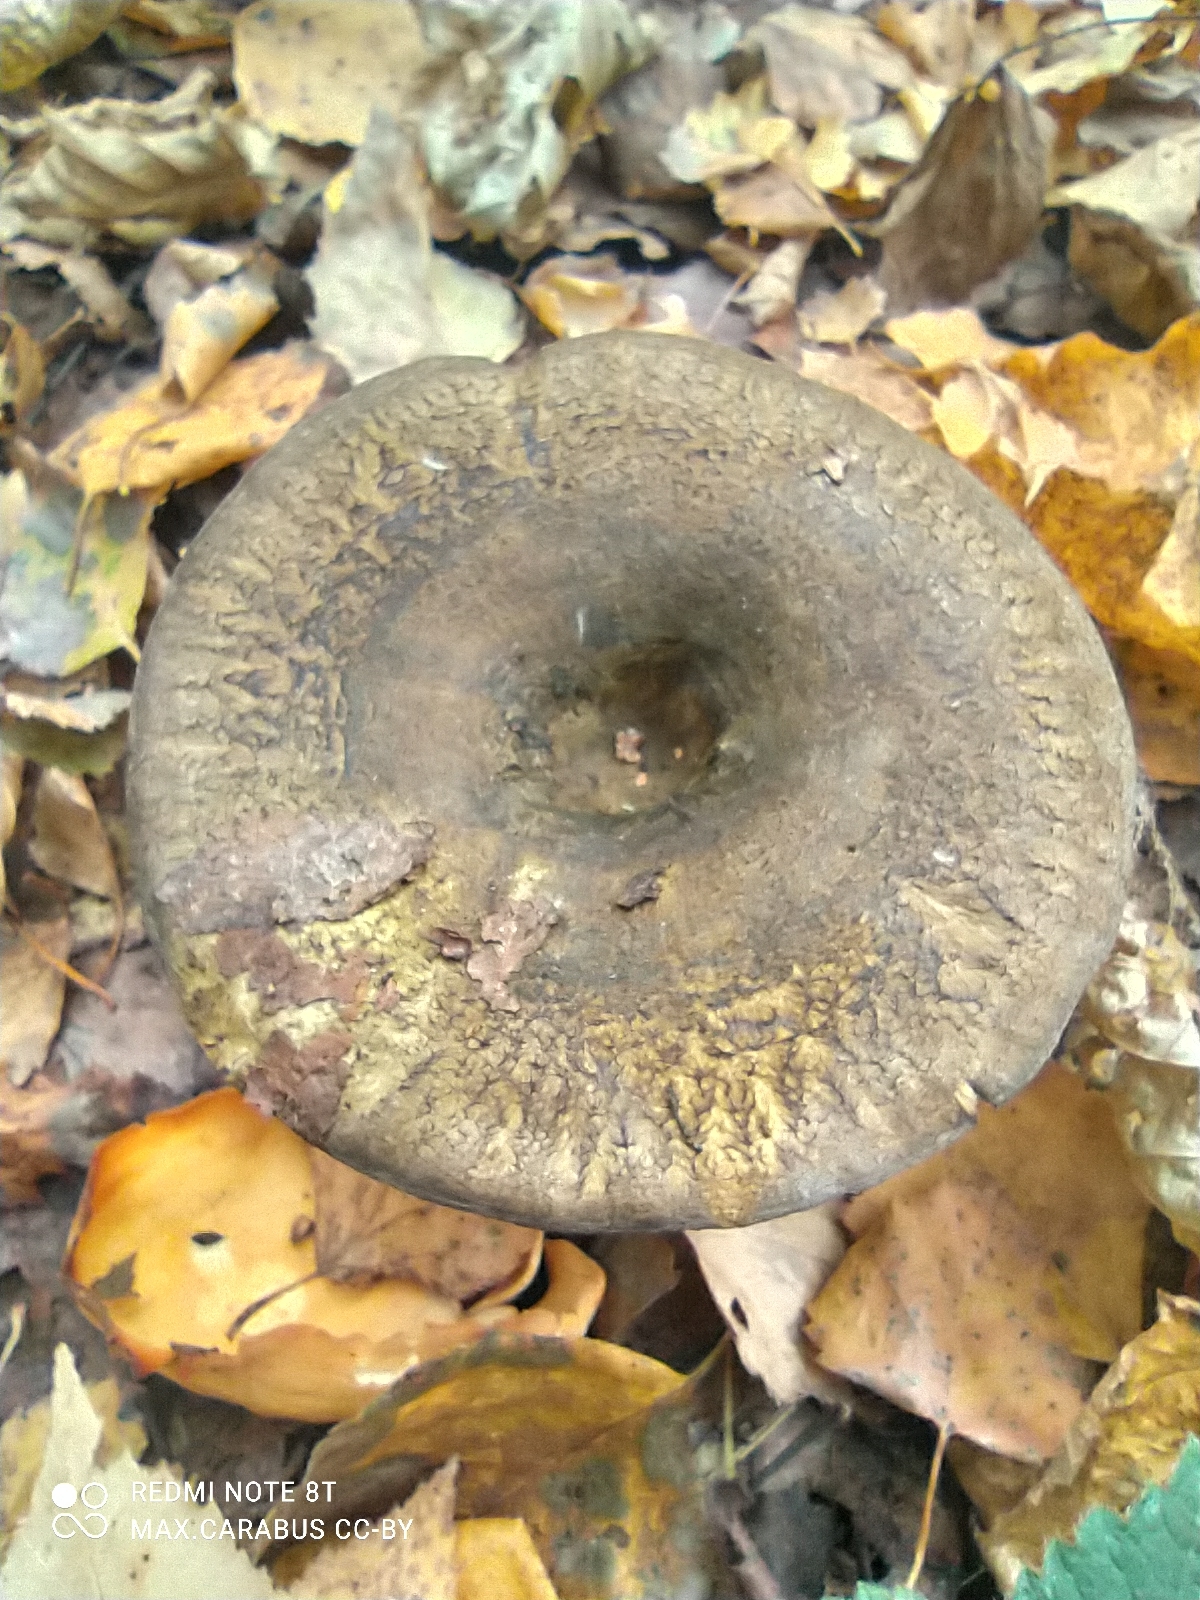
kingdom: Fungi
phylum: Basidiomycota
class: Agaricomycetes
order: Russulales
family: Russulaceae
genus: Lactarius
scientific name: Lactarius turpis
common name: Ugly milk-cap
